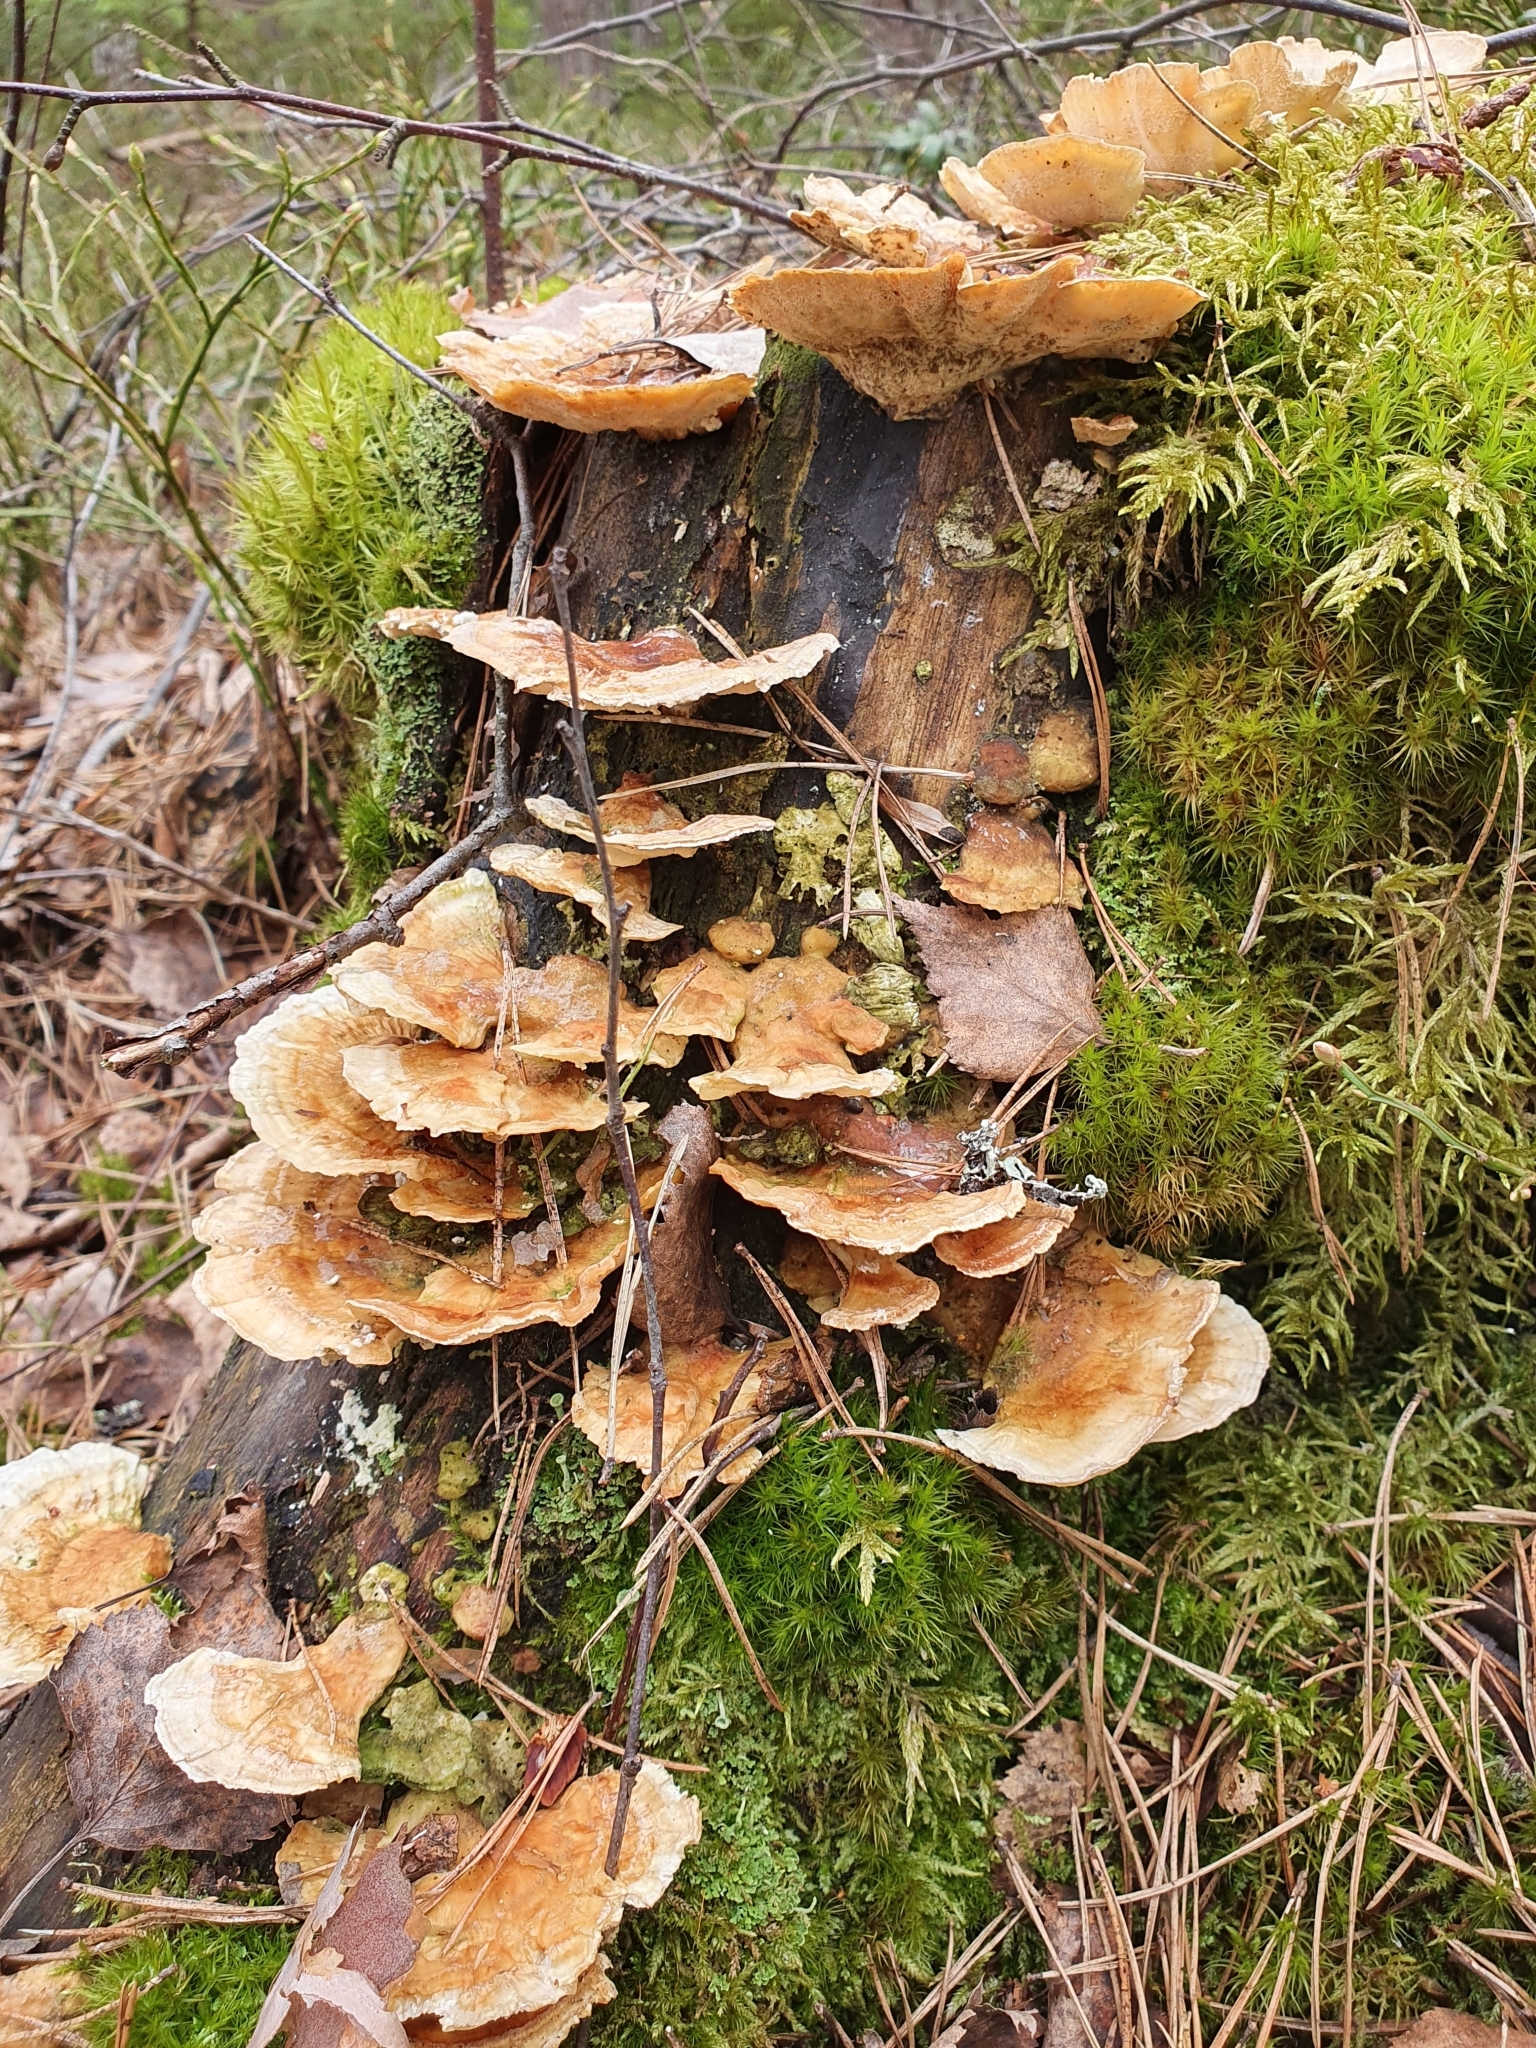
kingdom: Fungi
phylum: Basidiomycota
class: Agaricomycetes
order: Polyporales
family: Polyporaceae
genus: Trametes
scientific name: Trametes ochracea
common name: Ochre bracket
